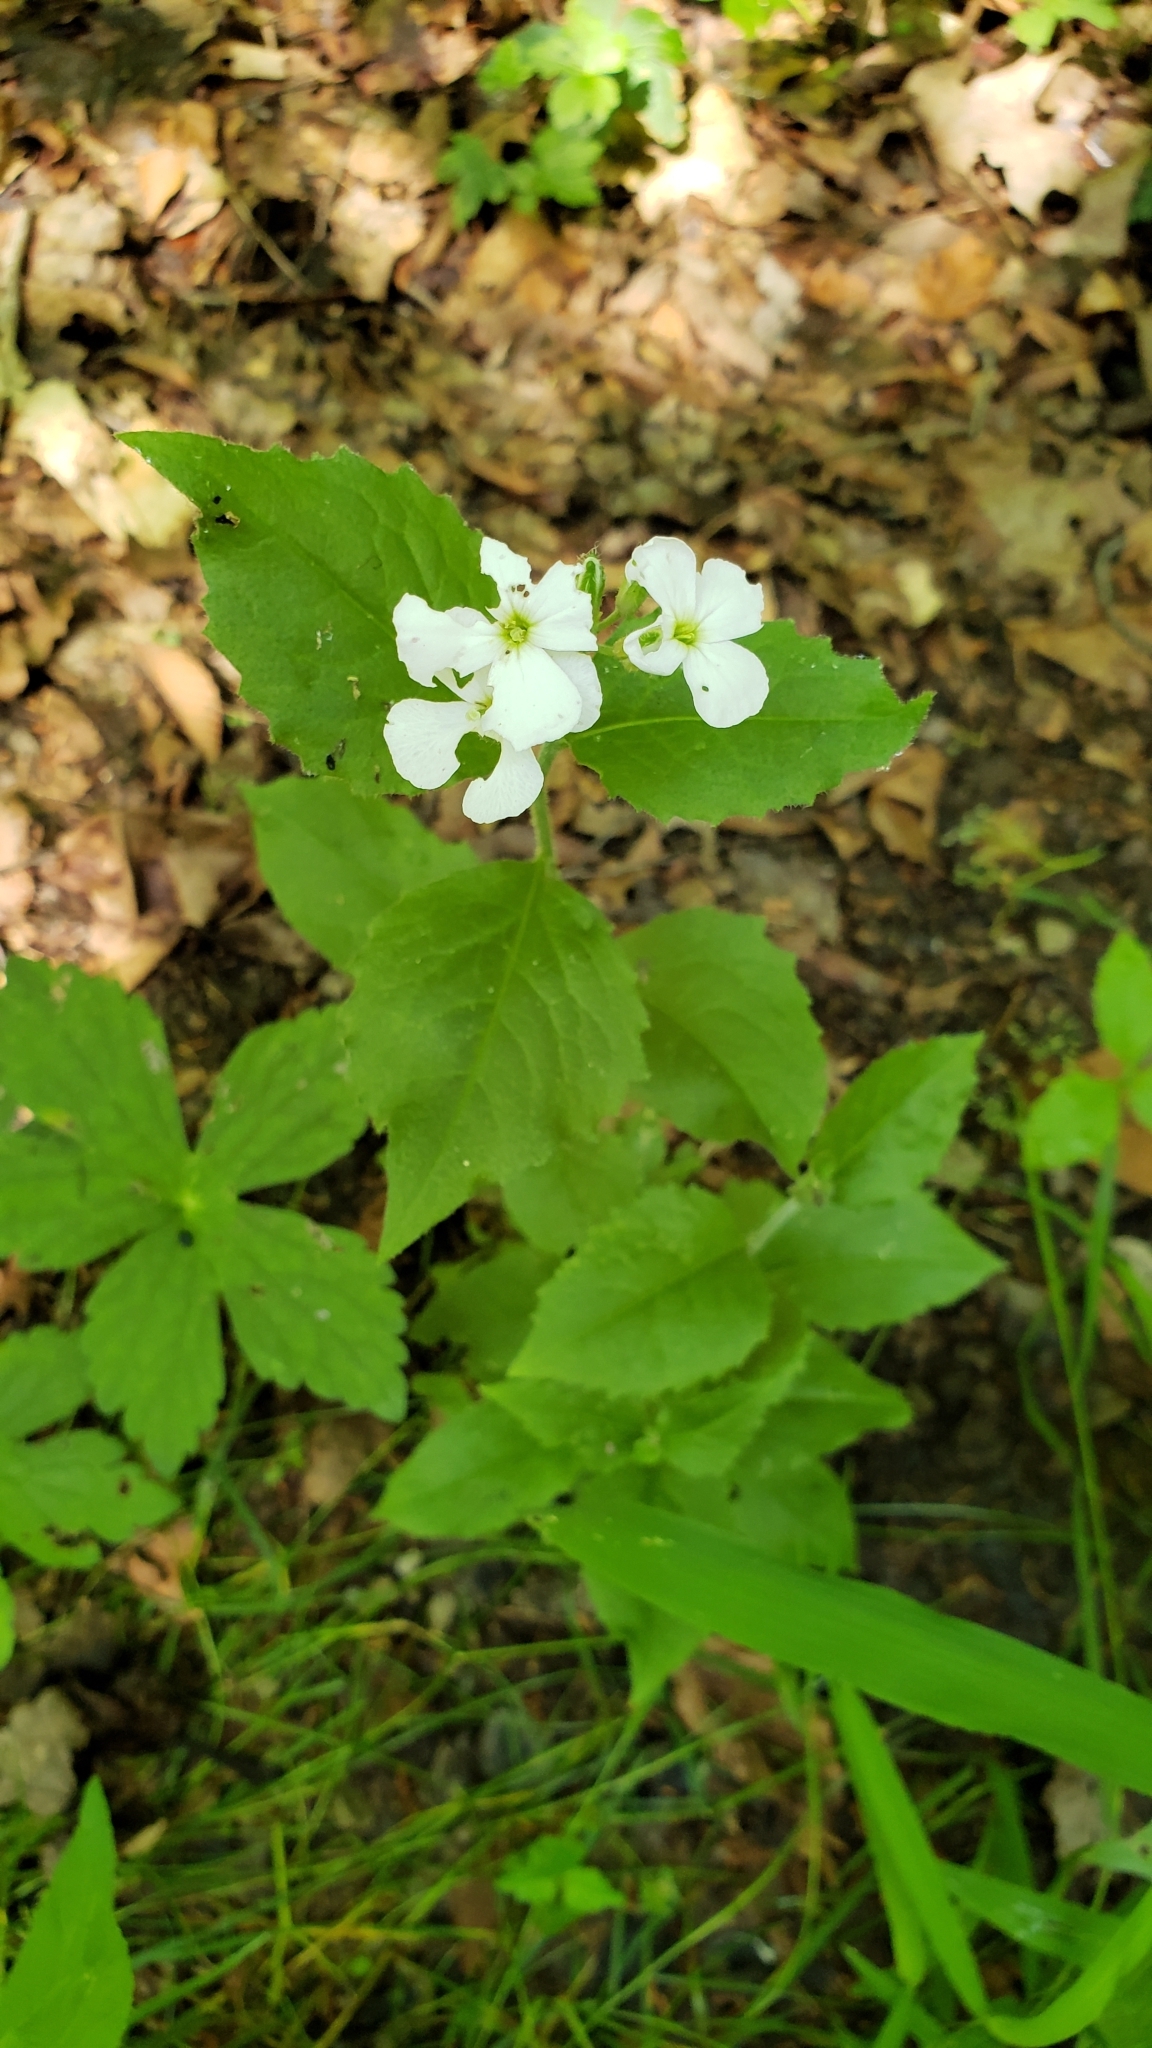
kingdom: Plantae
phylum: Tracheophyta
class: Magnoliopsida
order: Brassicales
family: Brassicaceae
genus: Hesperis
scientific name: Hesperis matronalis
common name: Dame's-violet
